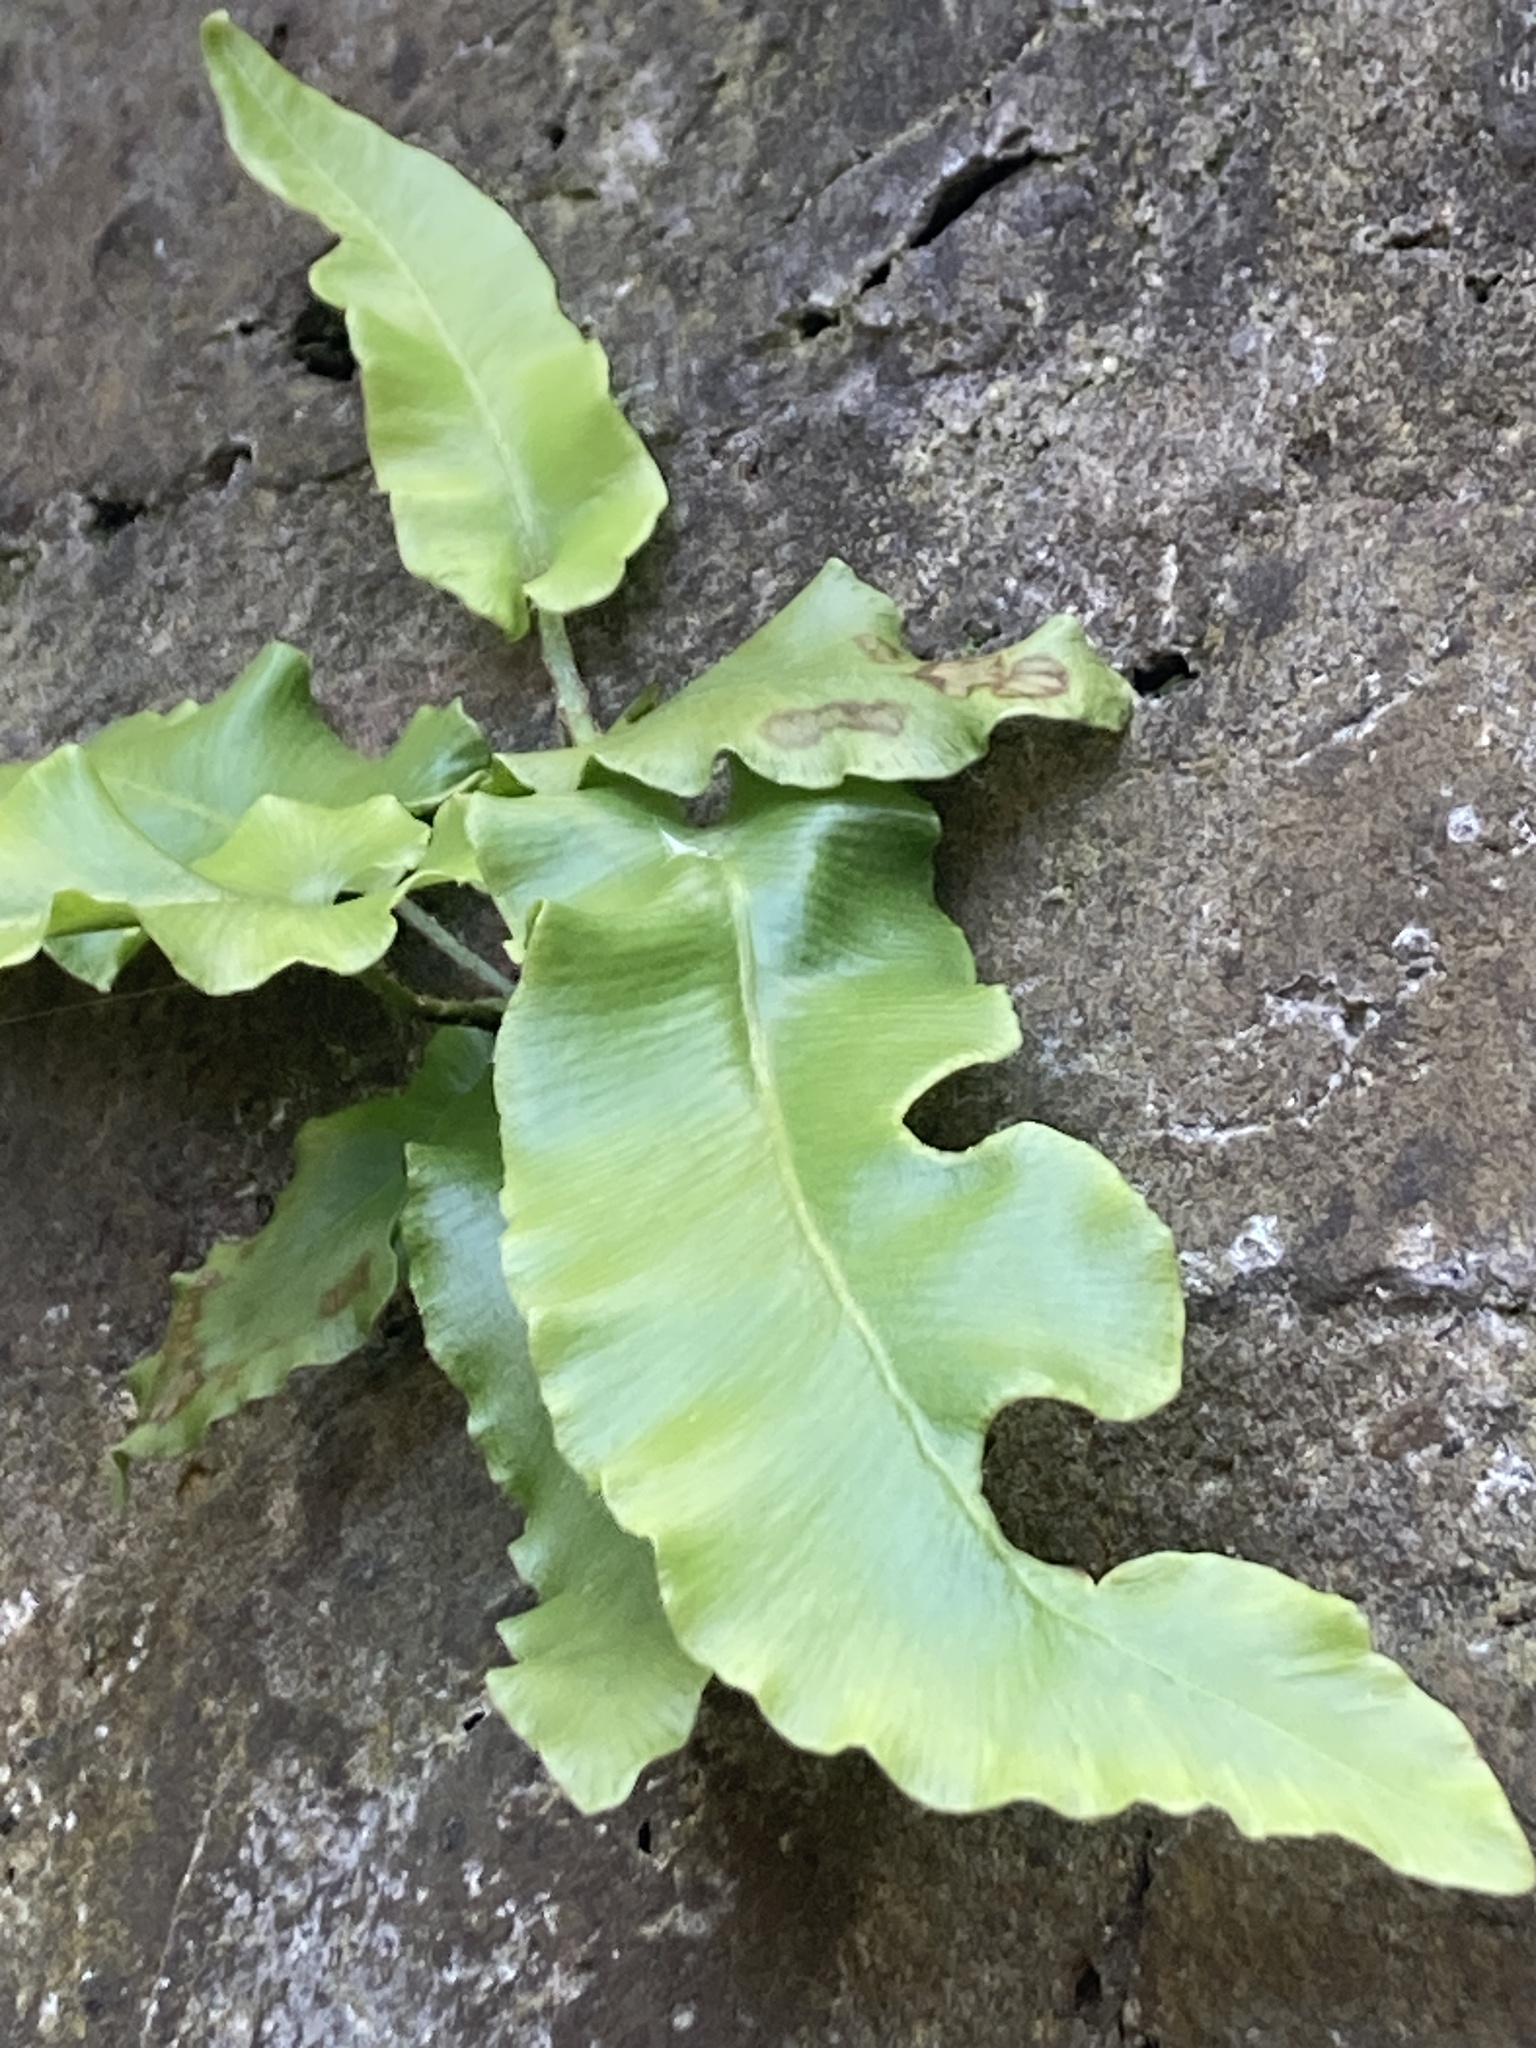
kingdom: Plantae
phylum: Tracheophyta
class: Polypodiopsida
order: Polypodiales
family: Aspleniaceae
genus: Asplenium
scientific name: Asplenium scolopendrium
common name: Hart's-tongue fern
